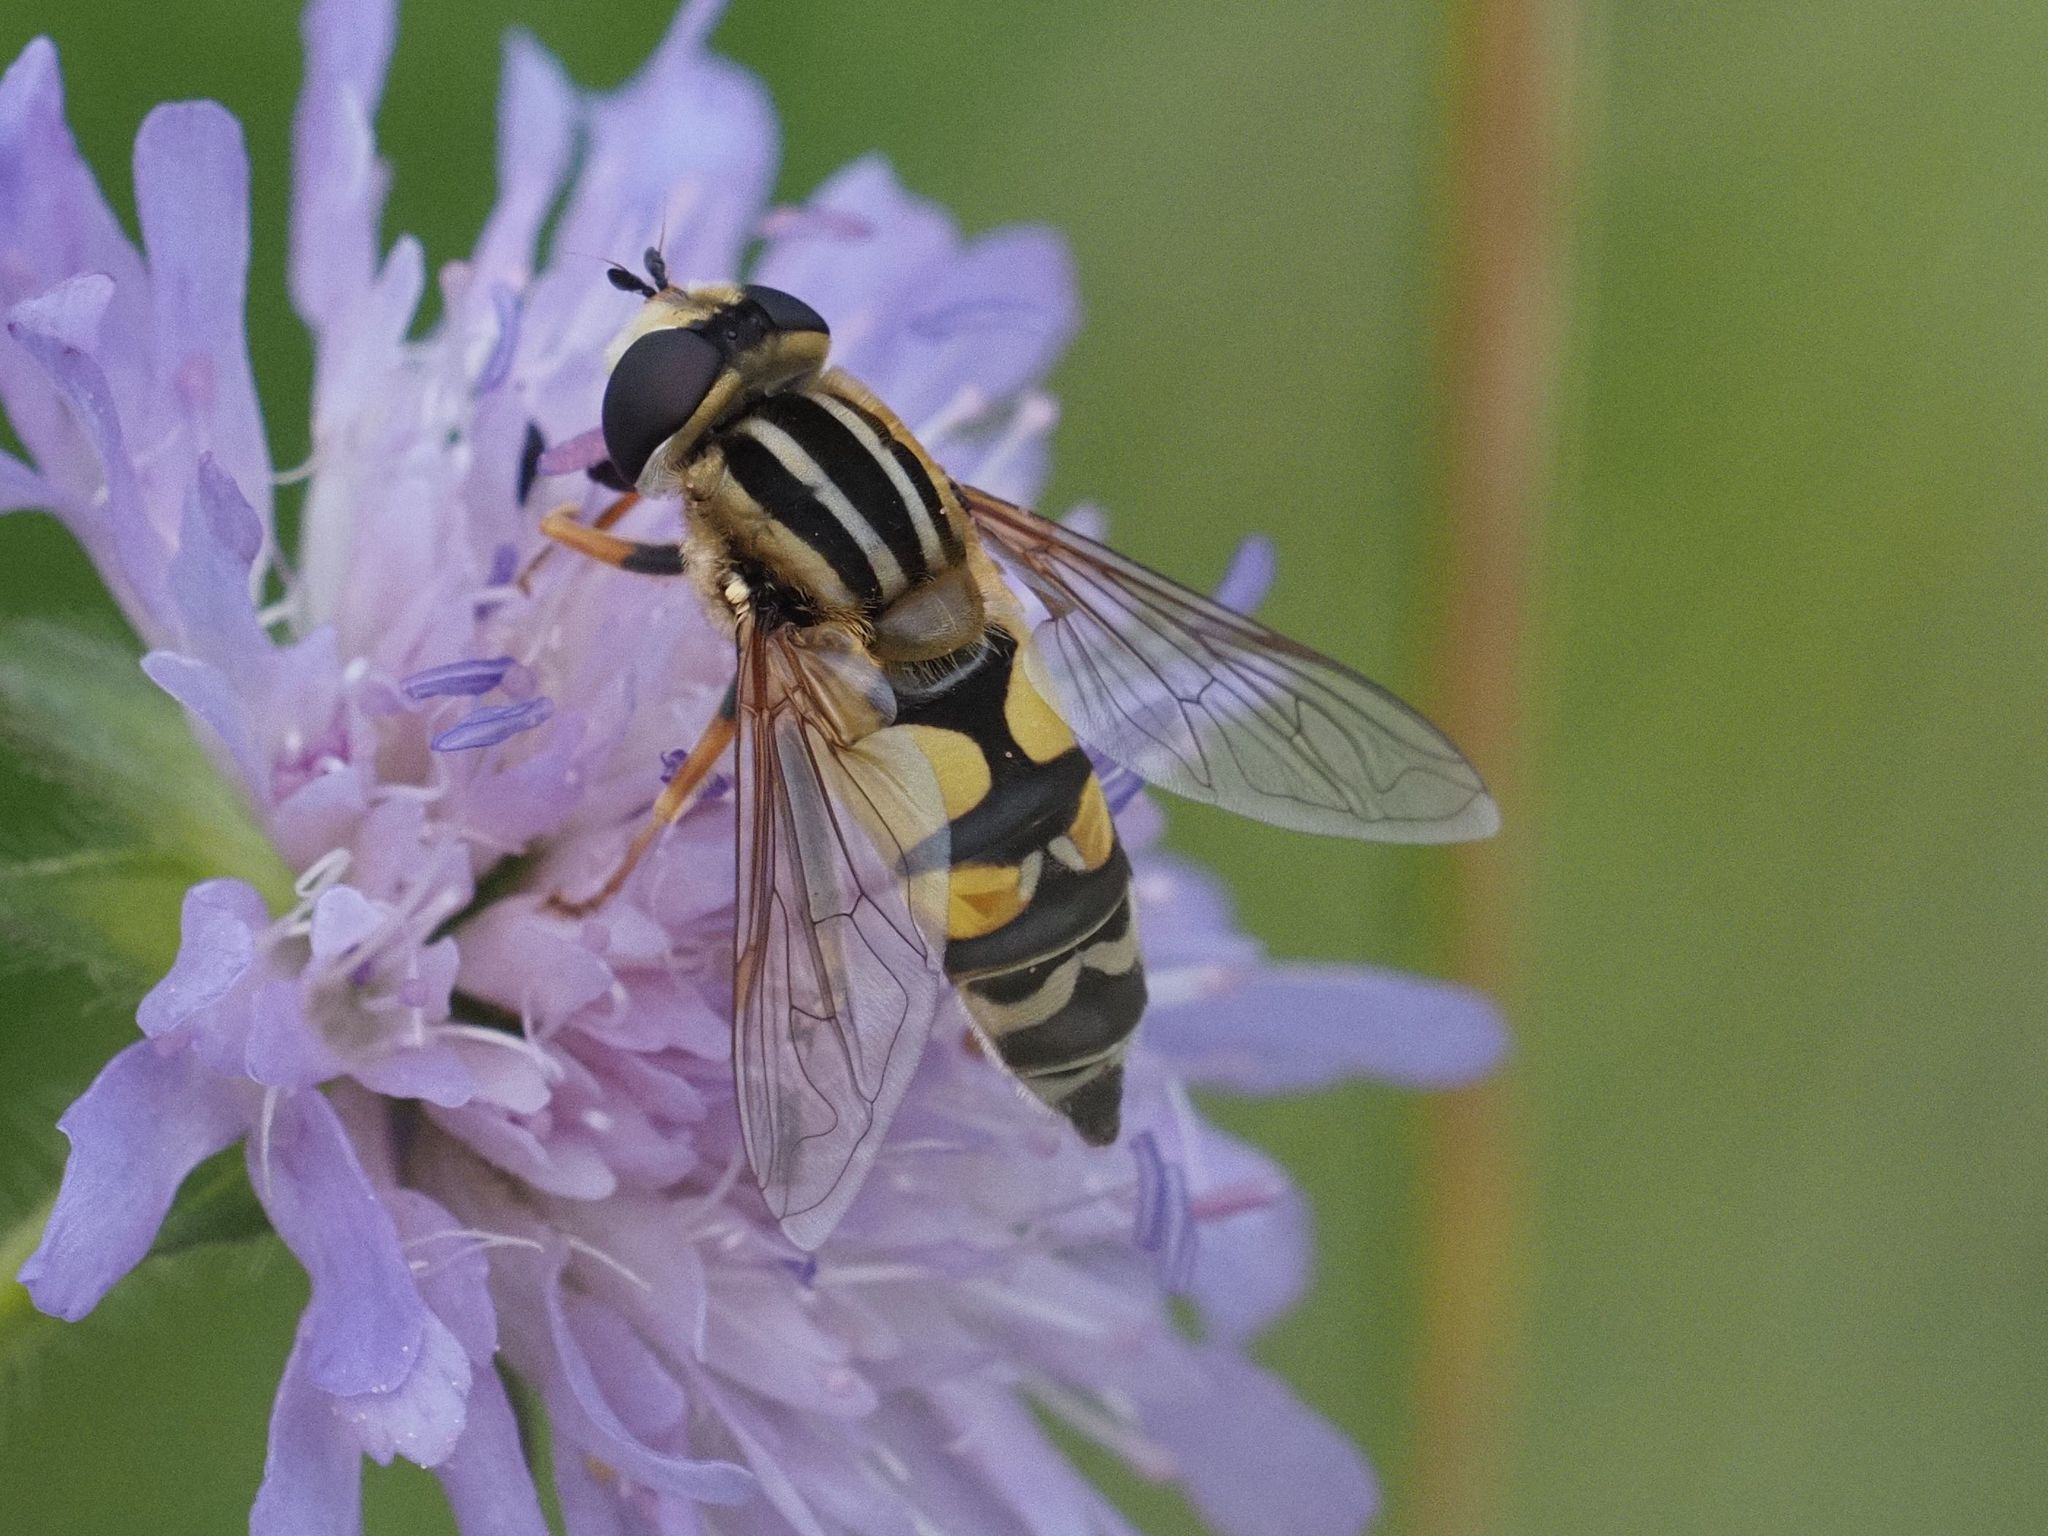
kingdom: Animalia
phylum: Arthropoda
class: Insecta
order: Diptera
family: Syrphidae
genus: Helophilus
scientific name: Helophilus trivittatus
